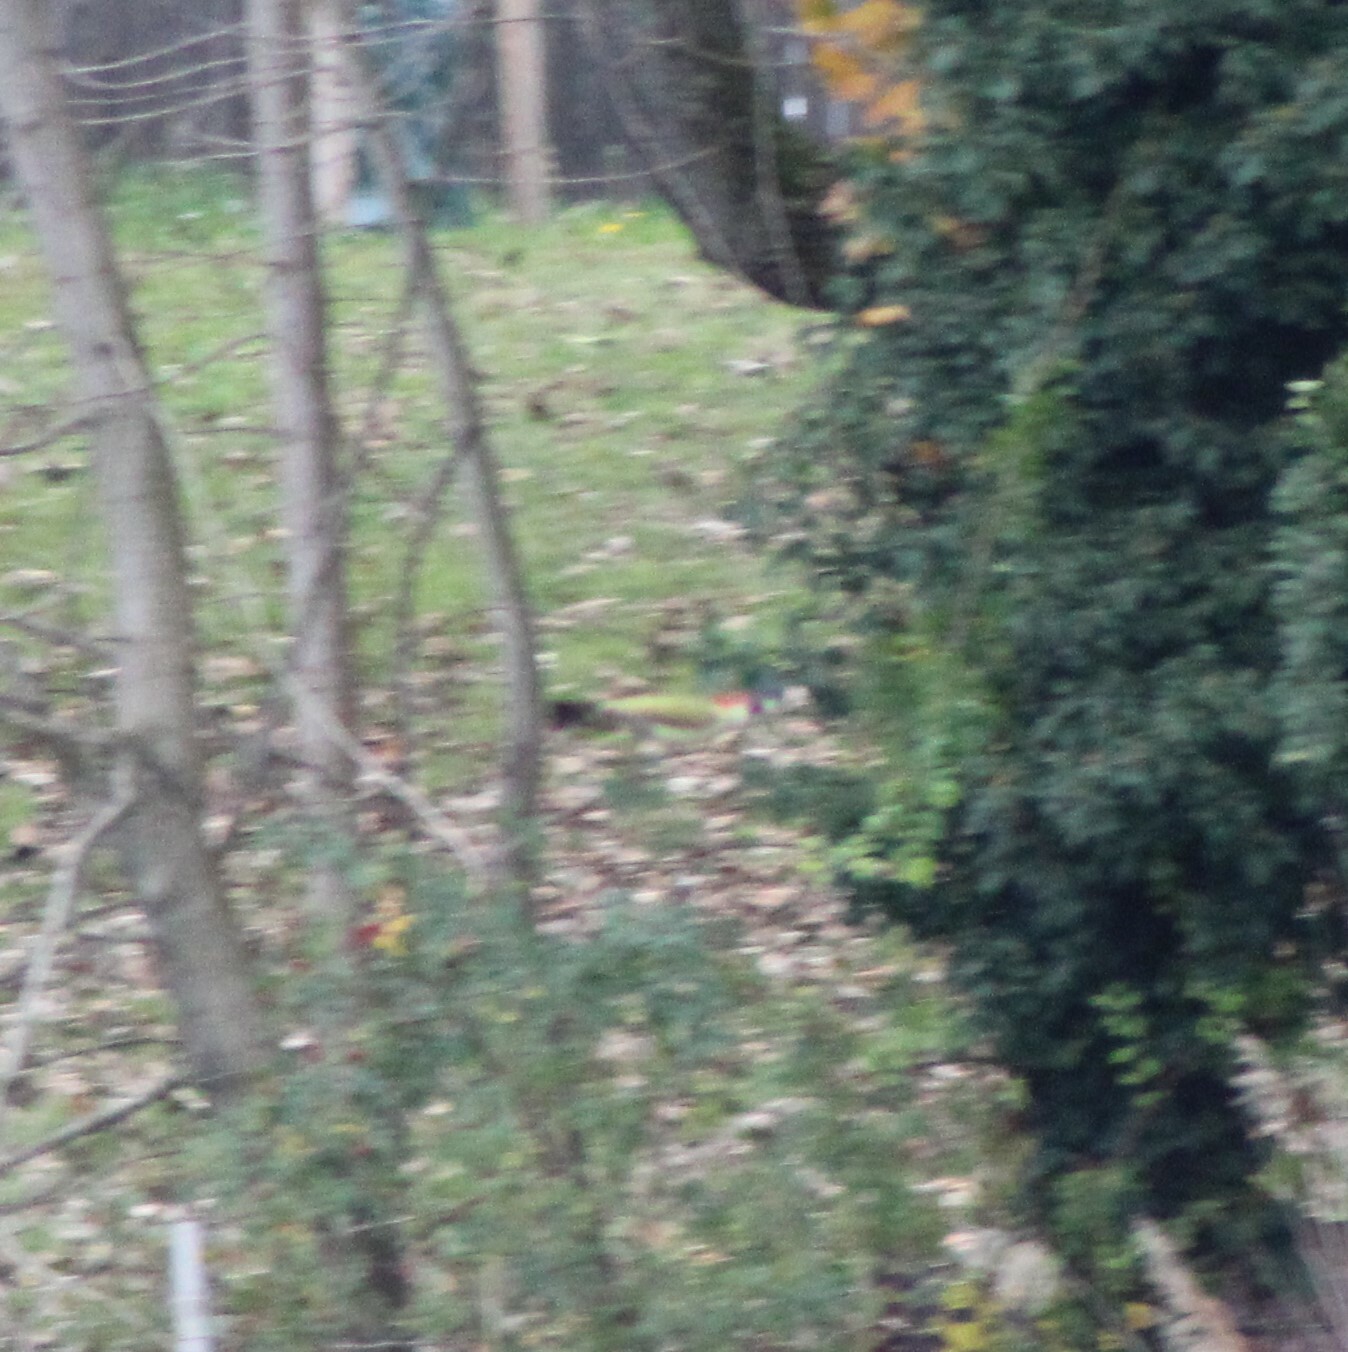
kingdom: Animalia
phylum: Chordata
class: Aves
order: Piciformes
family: Picidae
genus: Picus
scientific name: Picus viridis
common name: European green woodpecker
